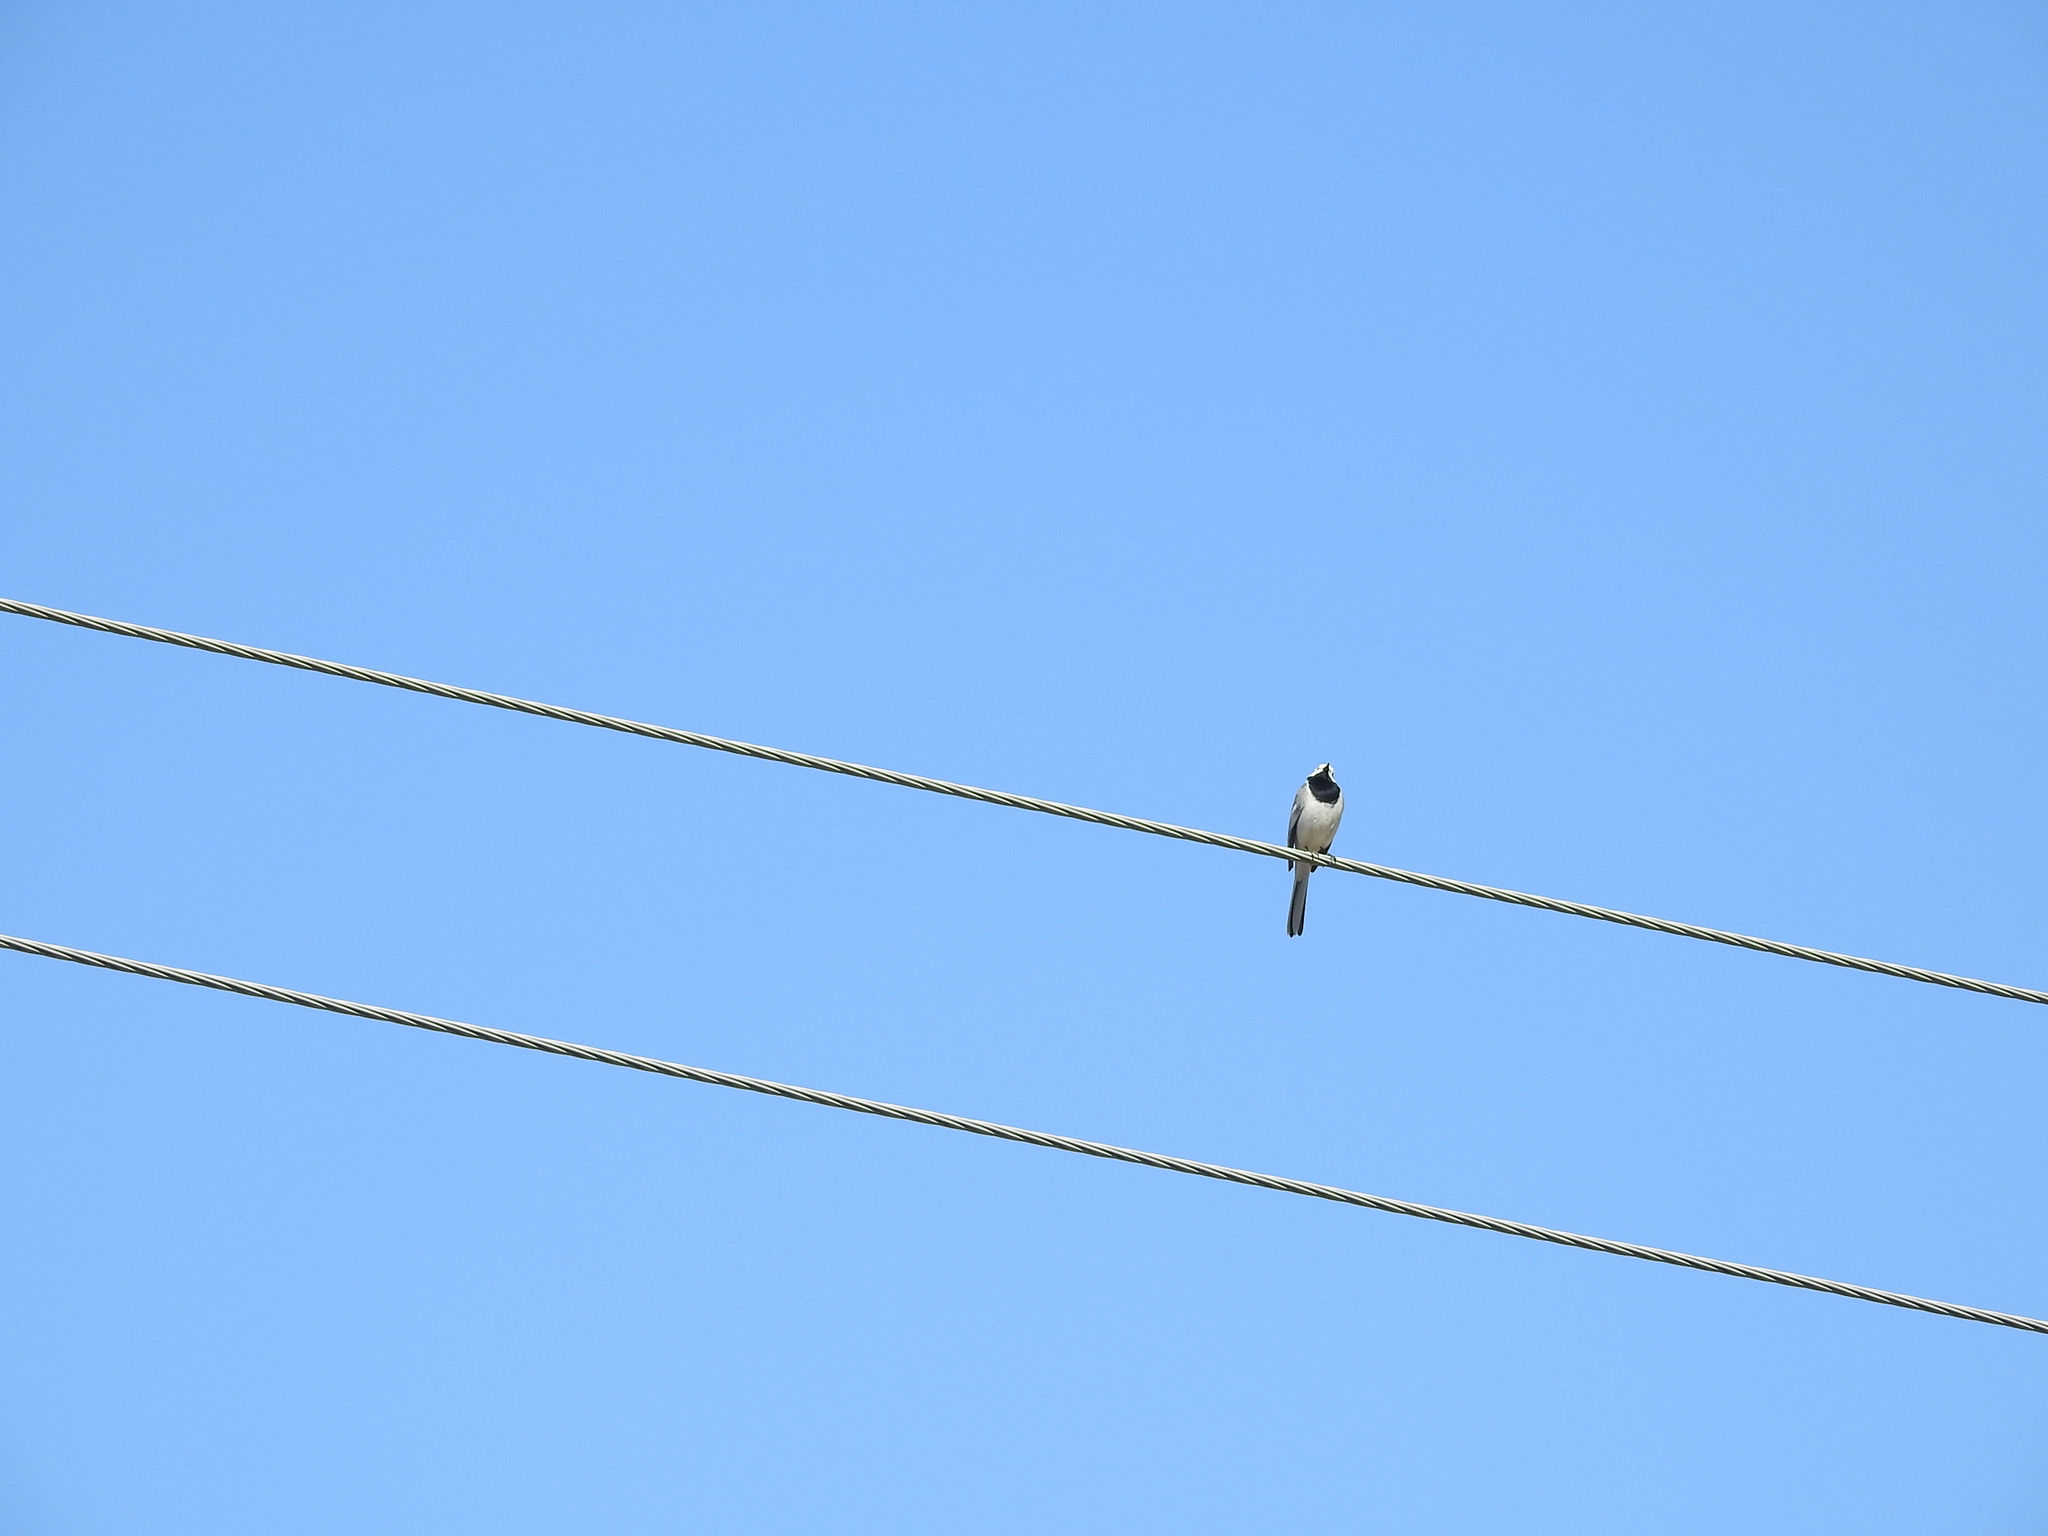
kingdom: Animalia
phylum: Chordata
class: Aves
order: Passeriformes
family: Motacillidae
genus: Motacilla
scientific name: Motacilla alba
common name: White wagtail
